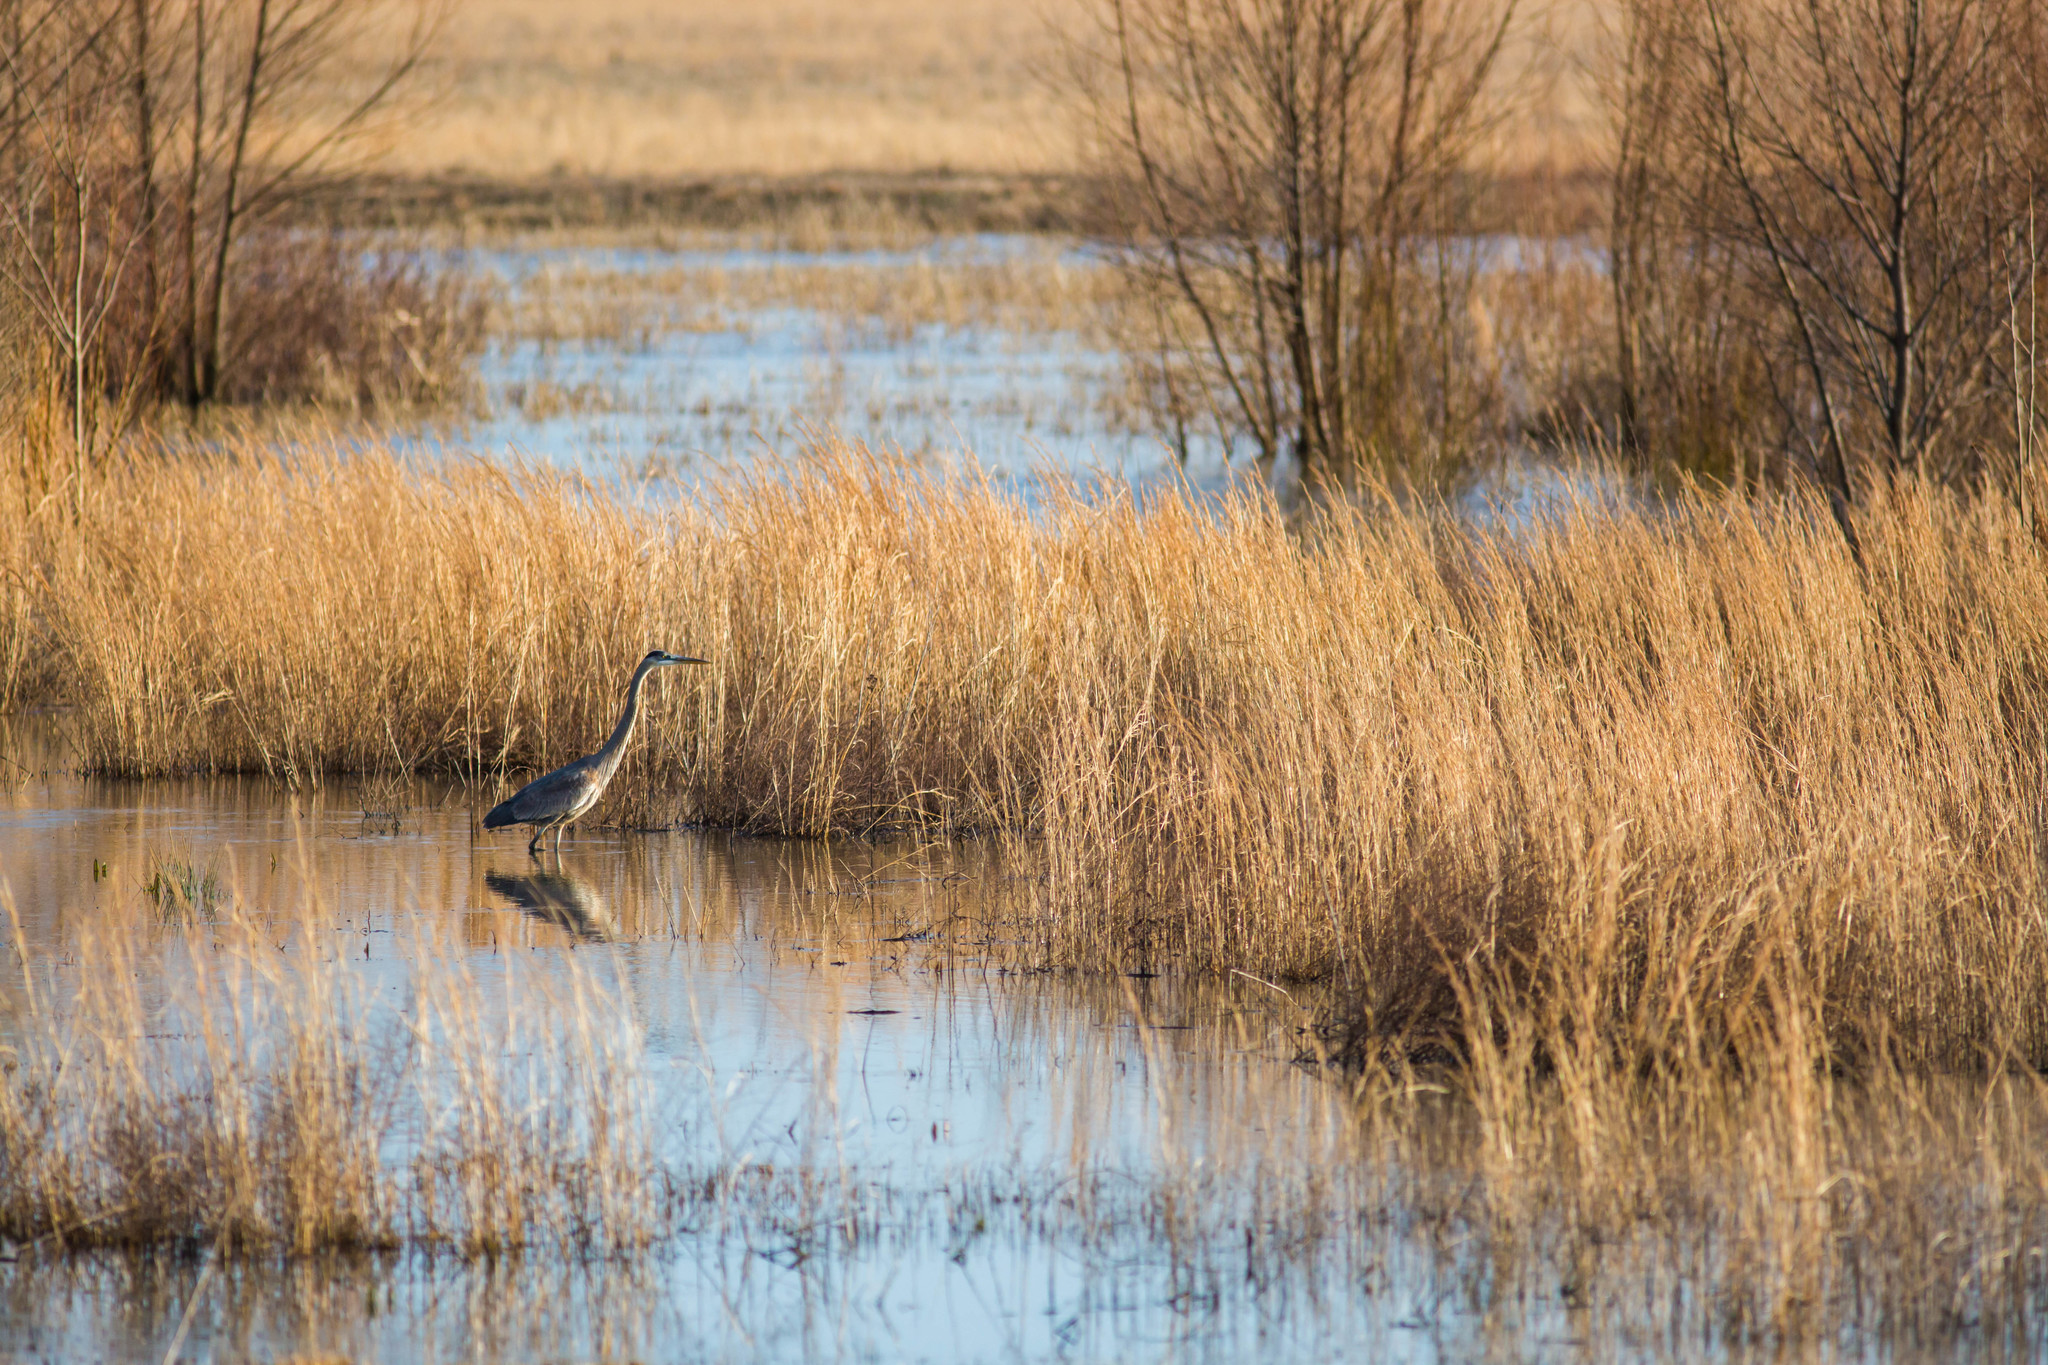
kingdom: Animalia
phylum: Chordata
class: Aves
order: Pelecaniformes
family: Ardeidae
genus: Ardea
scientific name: Ardea herodias
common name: Great blue heron
